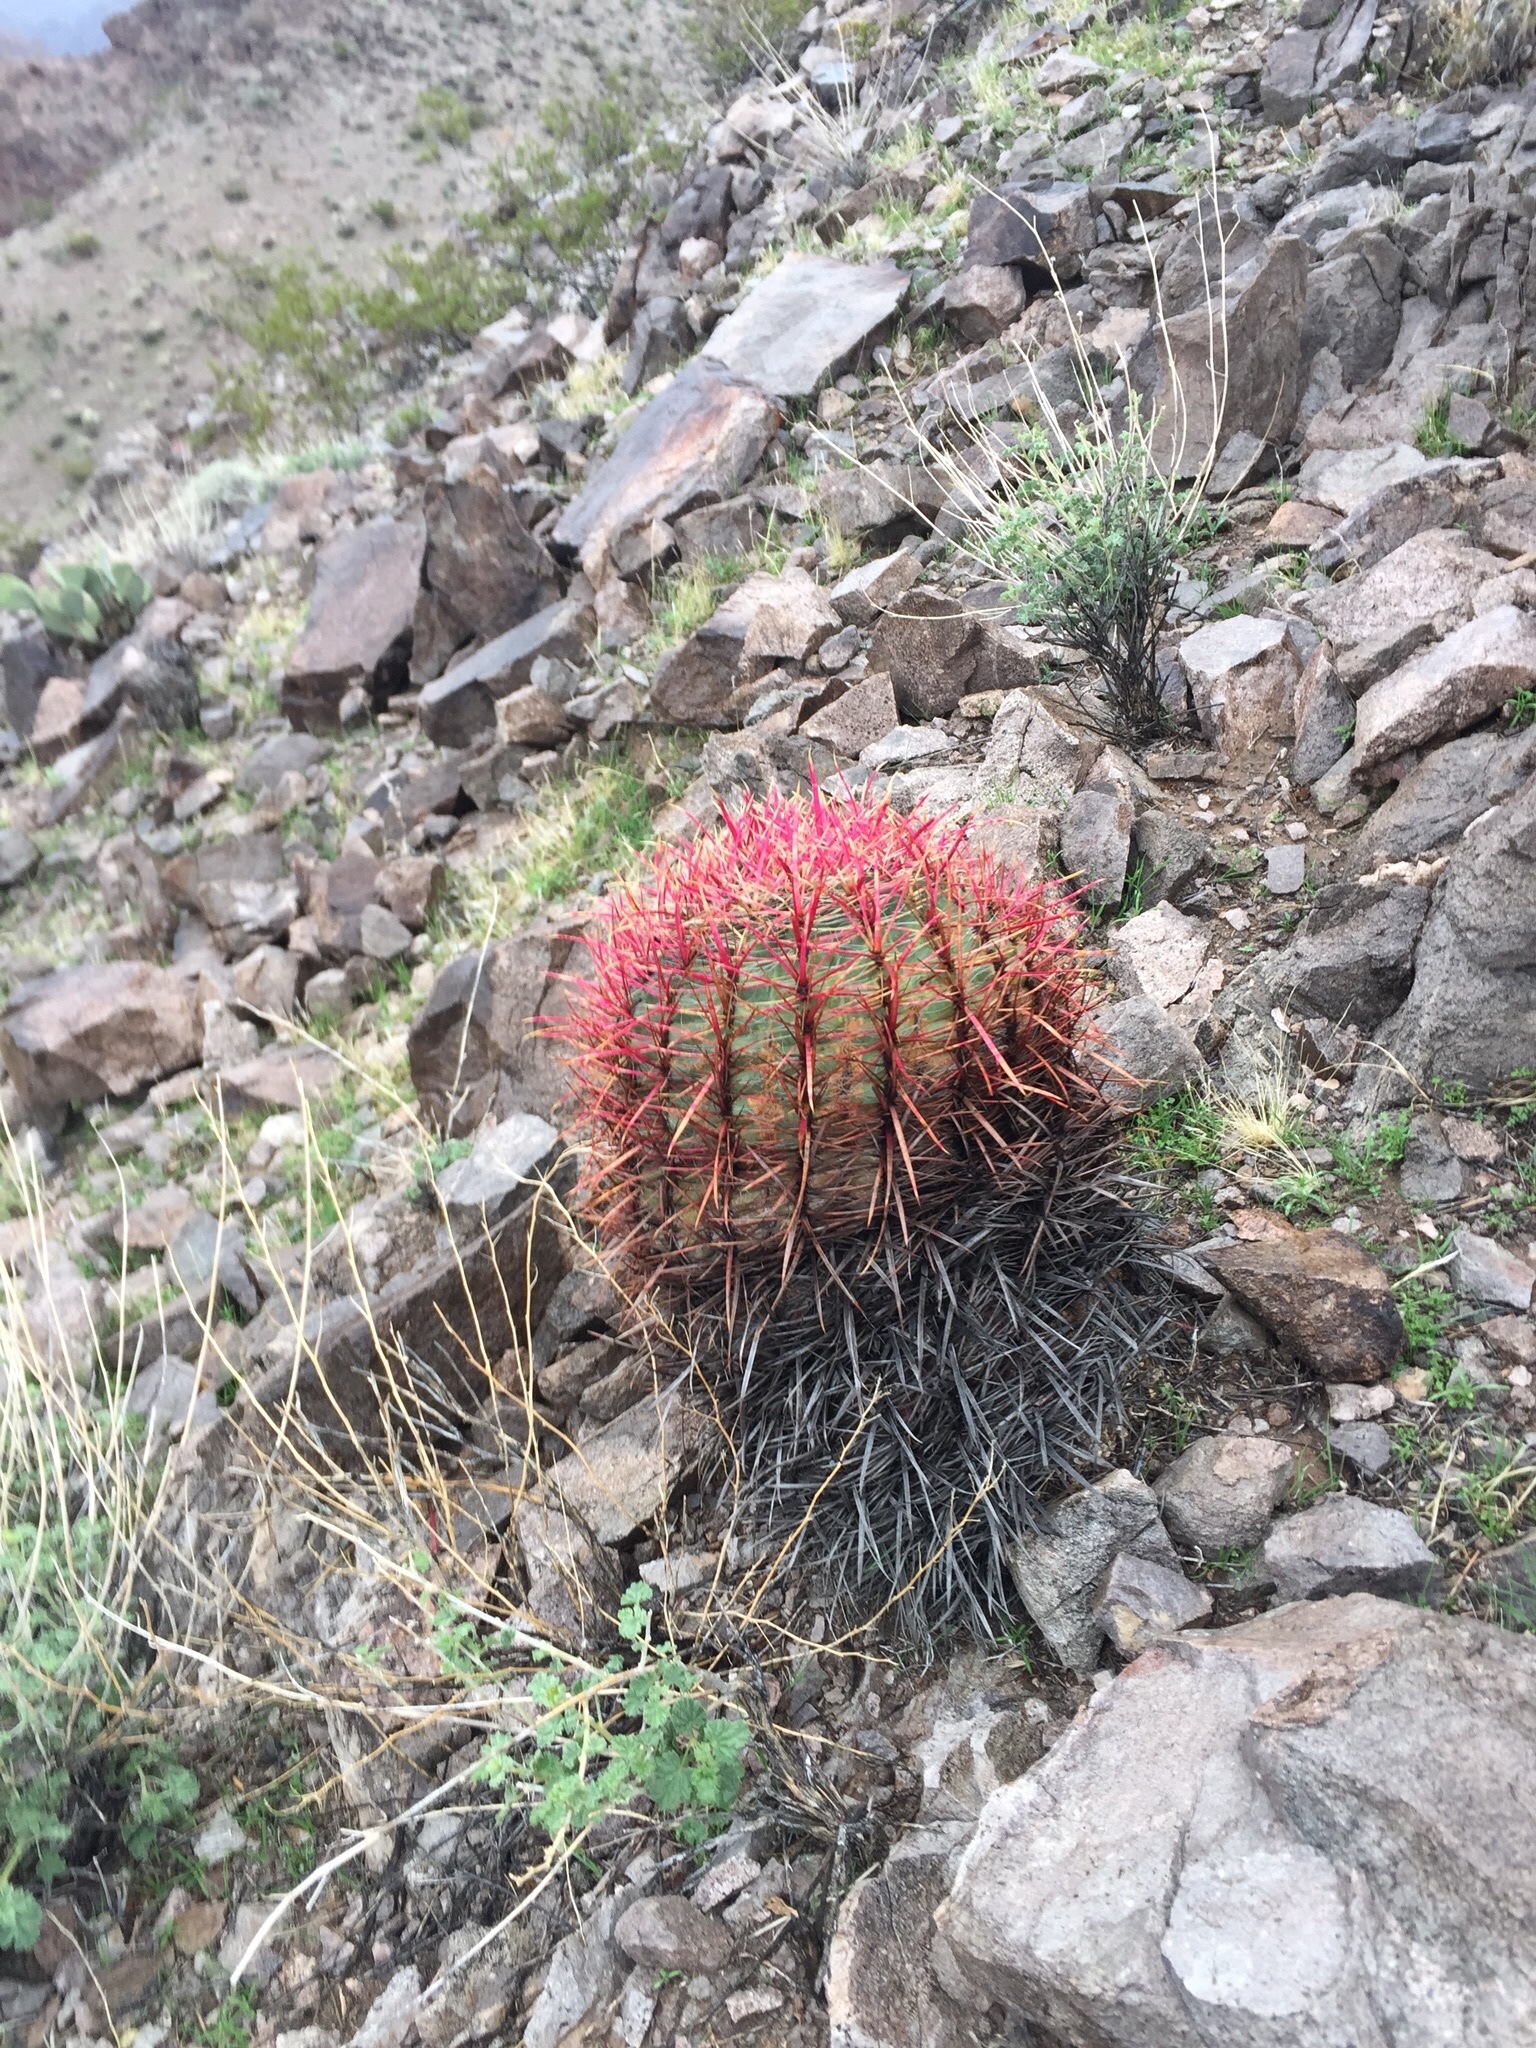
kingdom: Plantae
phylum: Tracheophyta
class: Magnoliopsida
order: Caryophyllales
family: Cactaceae
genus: Ferocactus
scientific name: Ferocactus cylindraceus
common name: California barrel cactus
